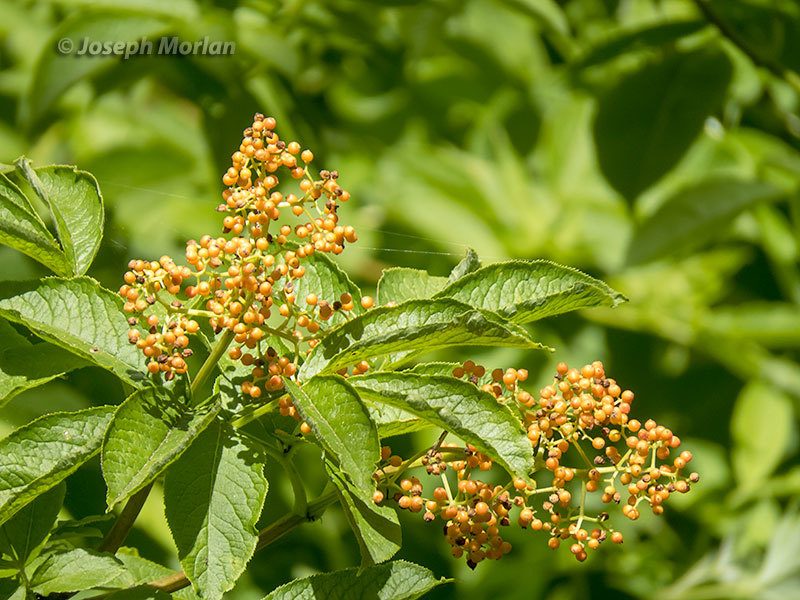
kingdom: Plantae
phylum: Tracheophyta
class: Magnoliopsida
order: Dipsacales
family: Viburnaceae
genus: Sambucus
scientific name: Sambucus racemosa
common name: Red-berried elder
